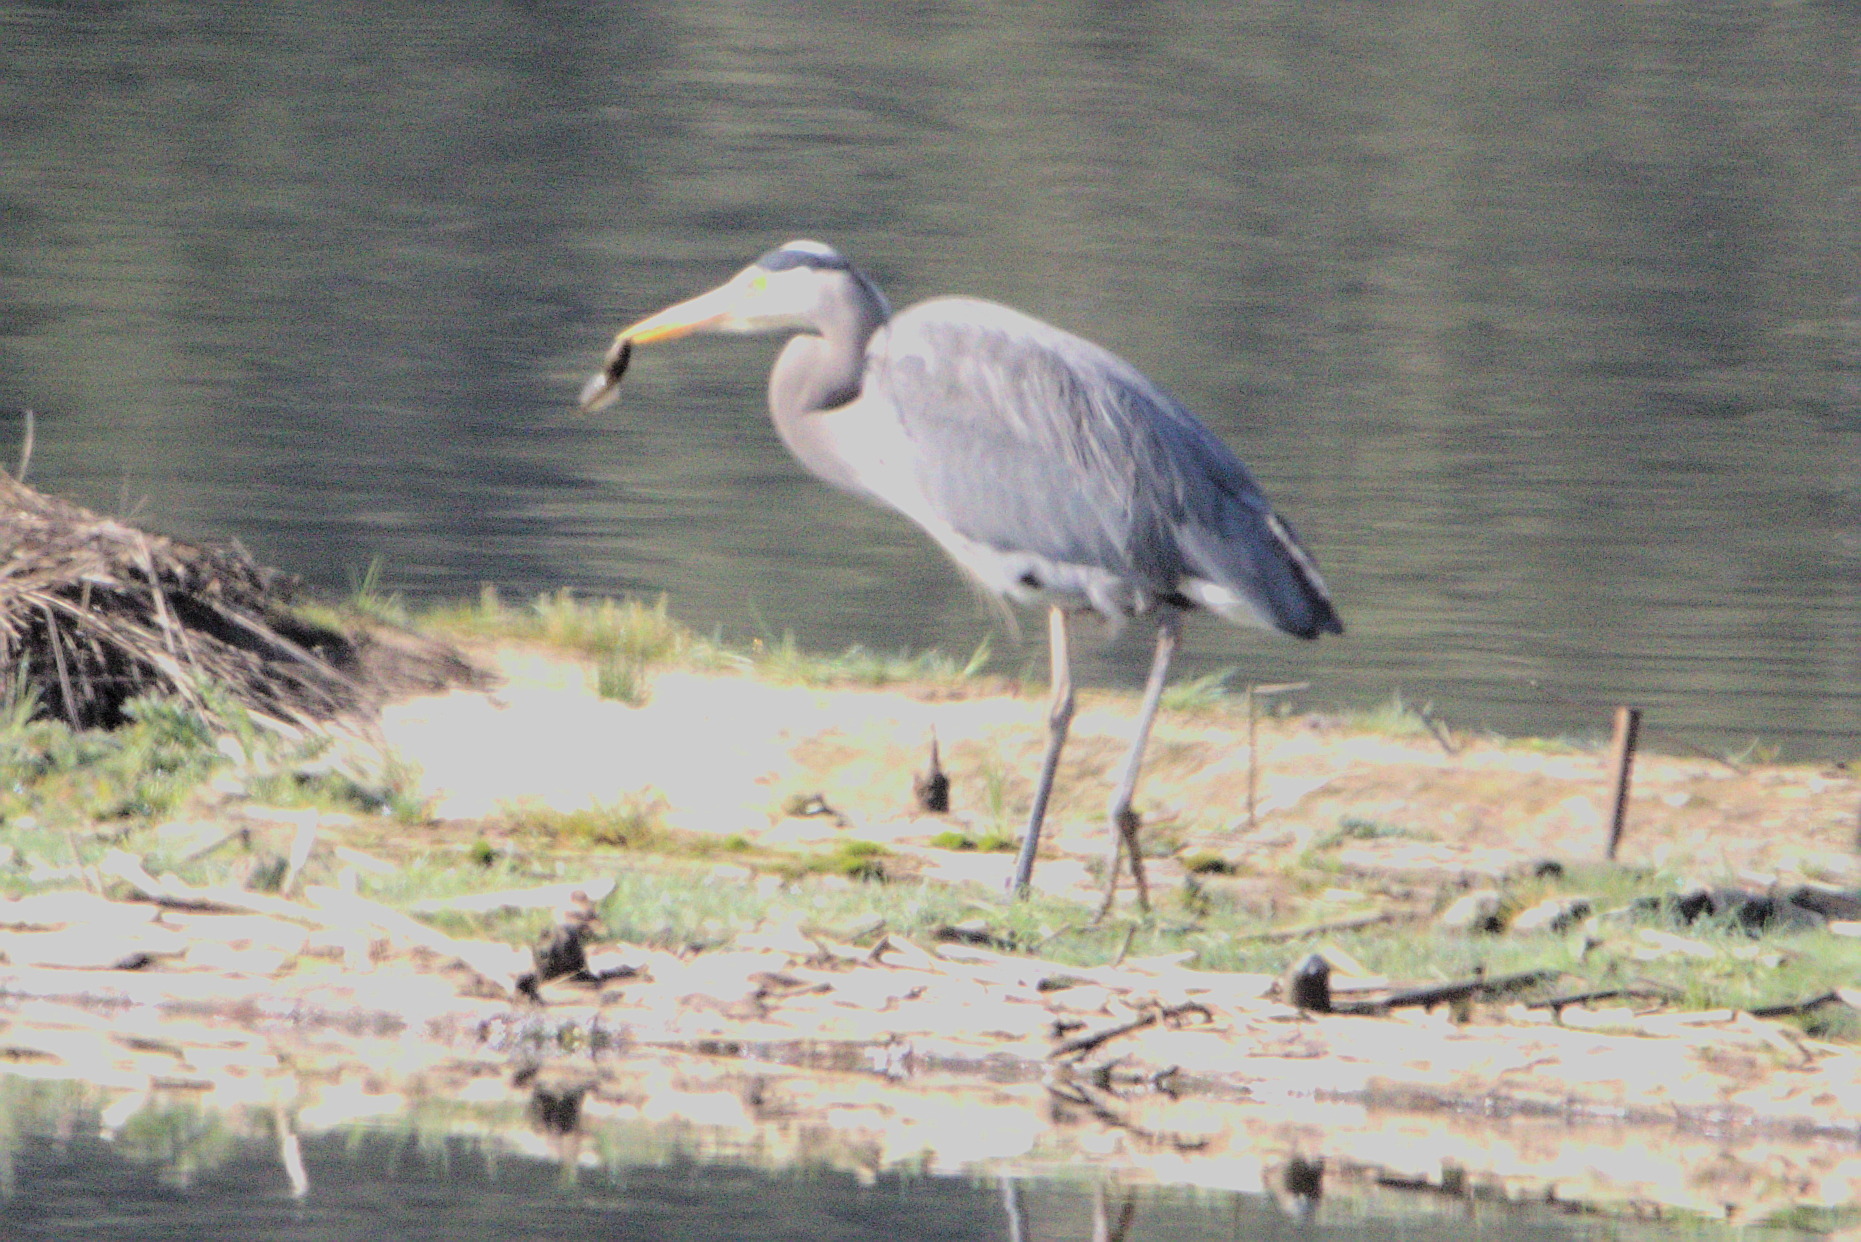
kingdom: Animalia
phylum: Chordata
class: Aves
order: Pelecaniformes
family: Ardeidae
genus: Ardea
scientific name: Ardea herodias
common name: Great blue heron
